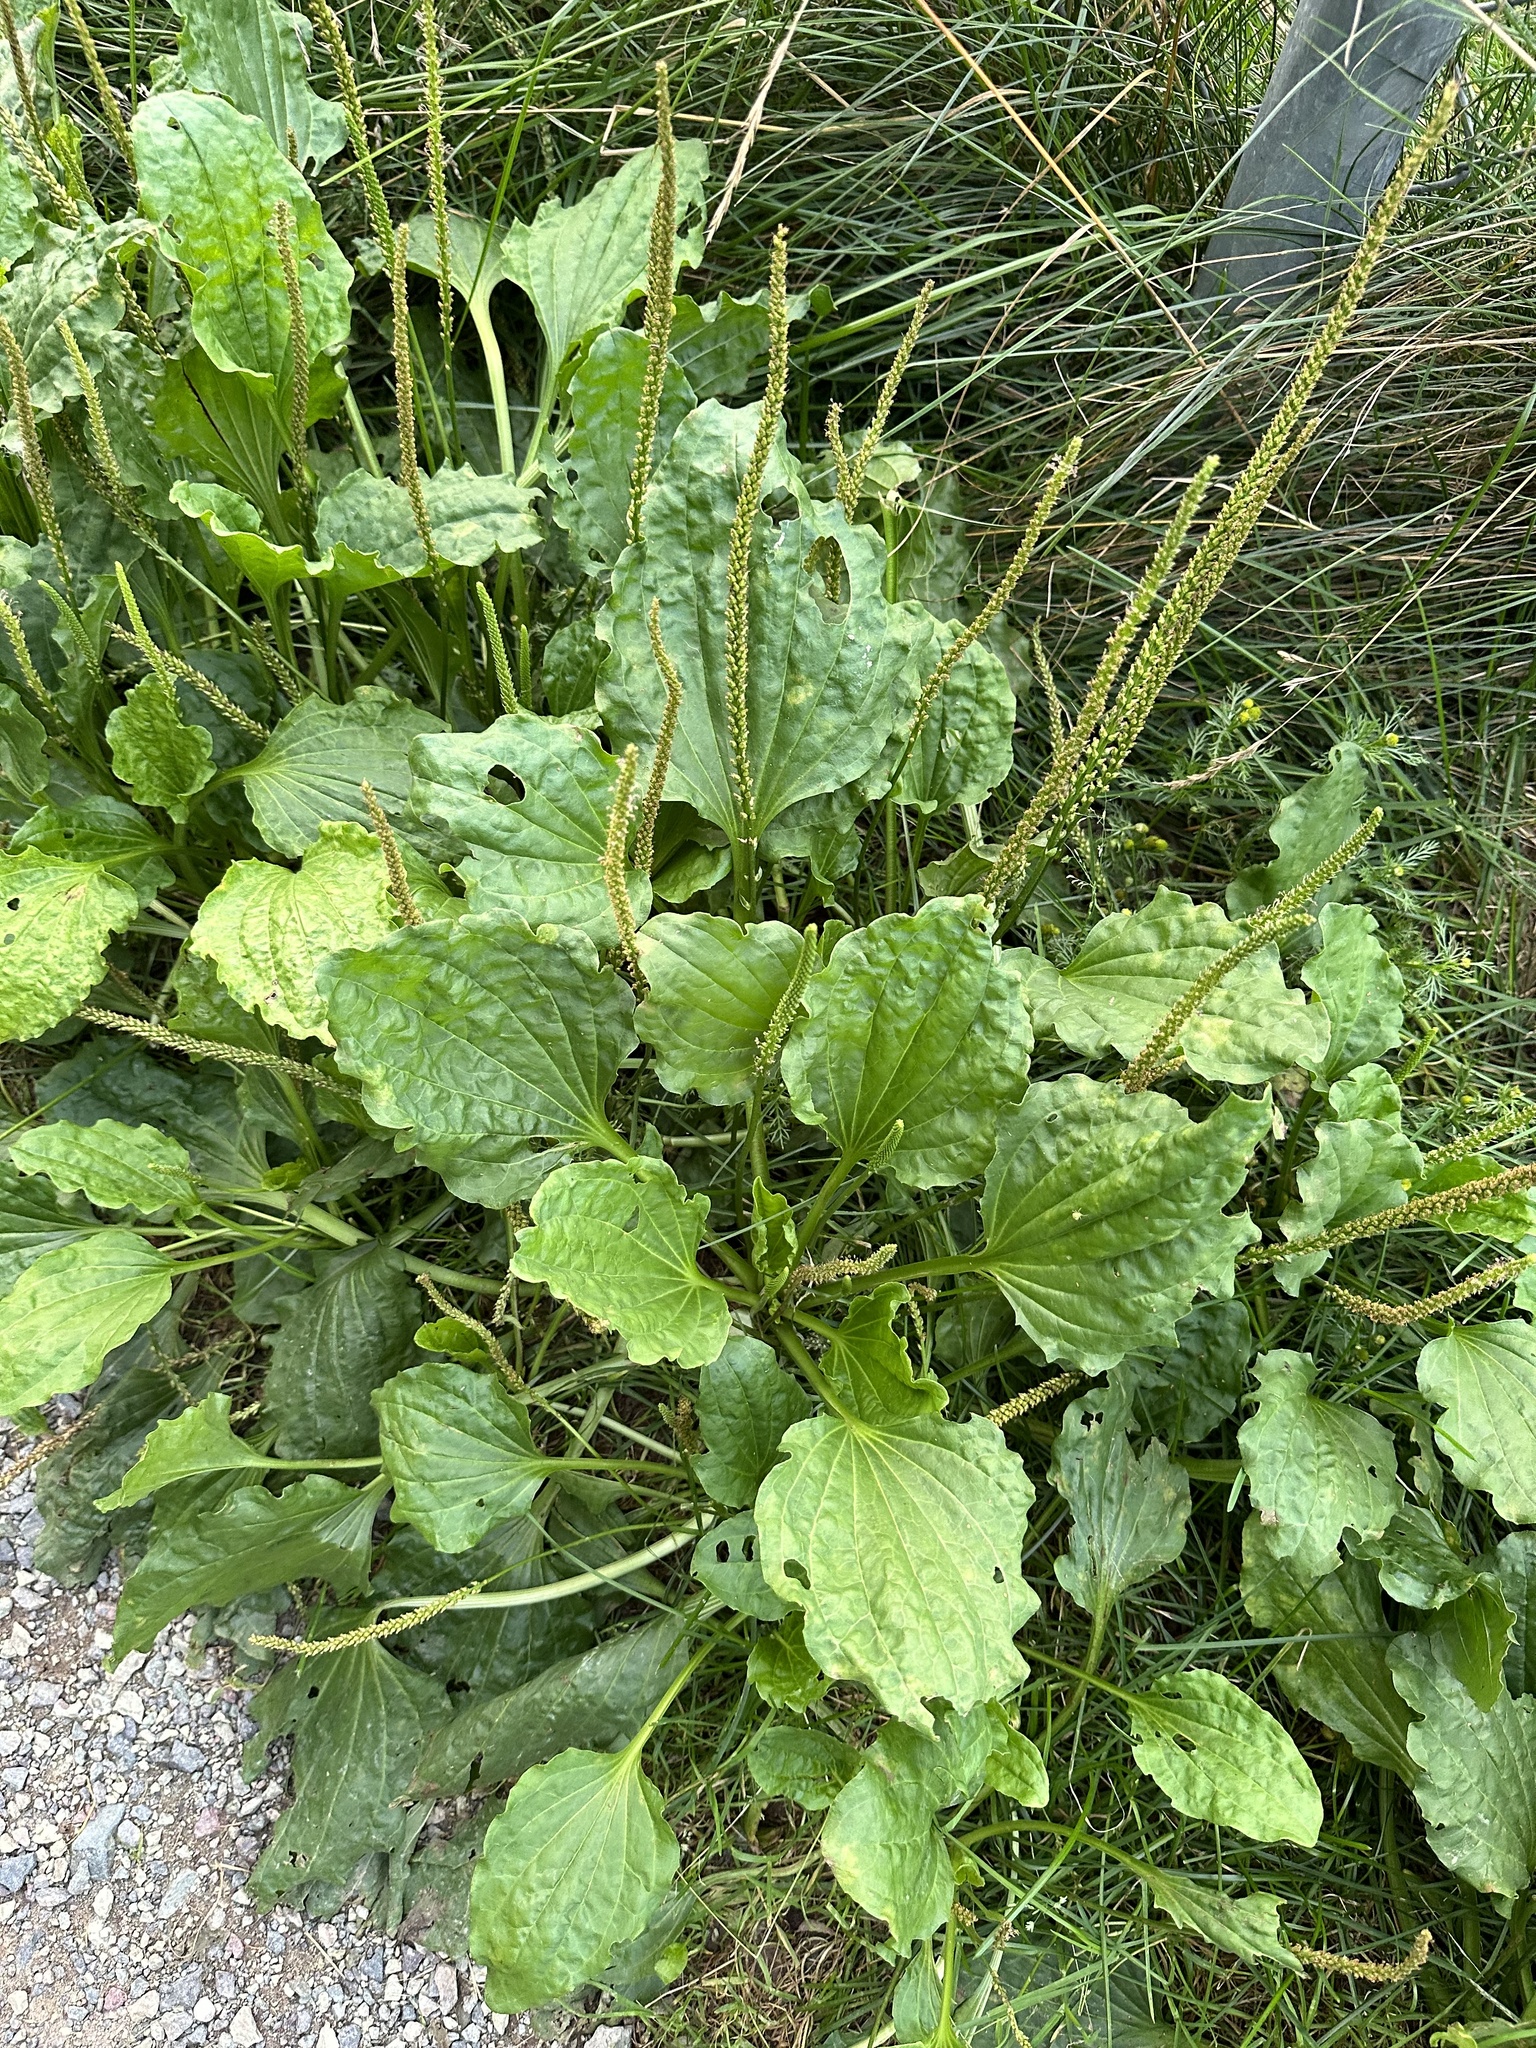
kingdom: Plantae
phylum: Tracheophyta
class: Magnoliopsida
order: Lamiales
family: Plantaginaceae
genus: Plantago
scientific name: Plantago major
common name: Common plantain
